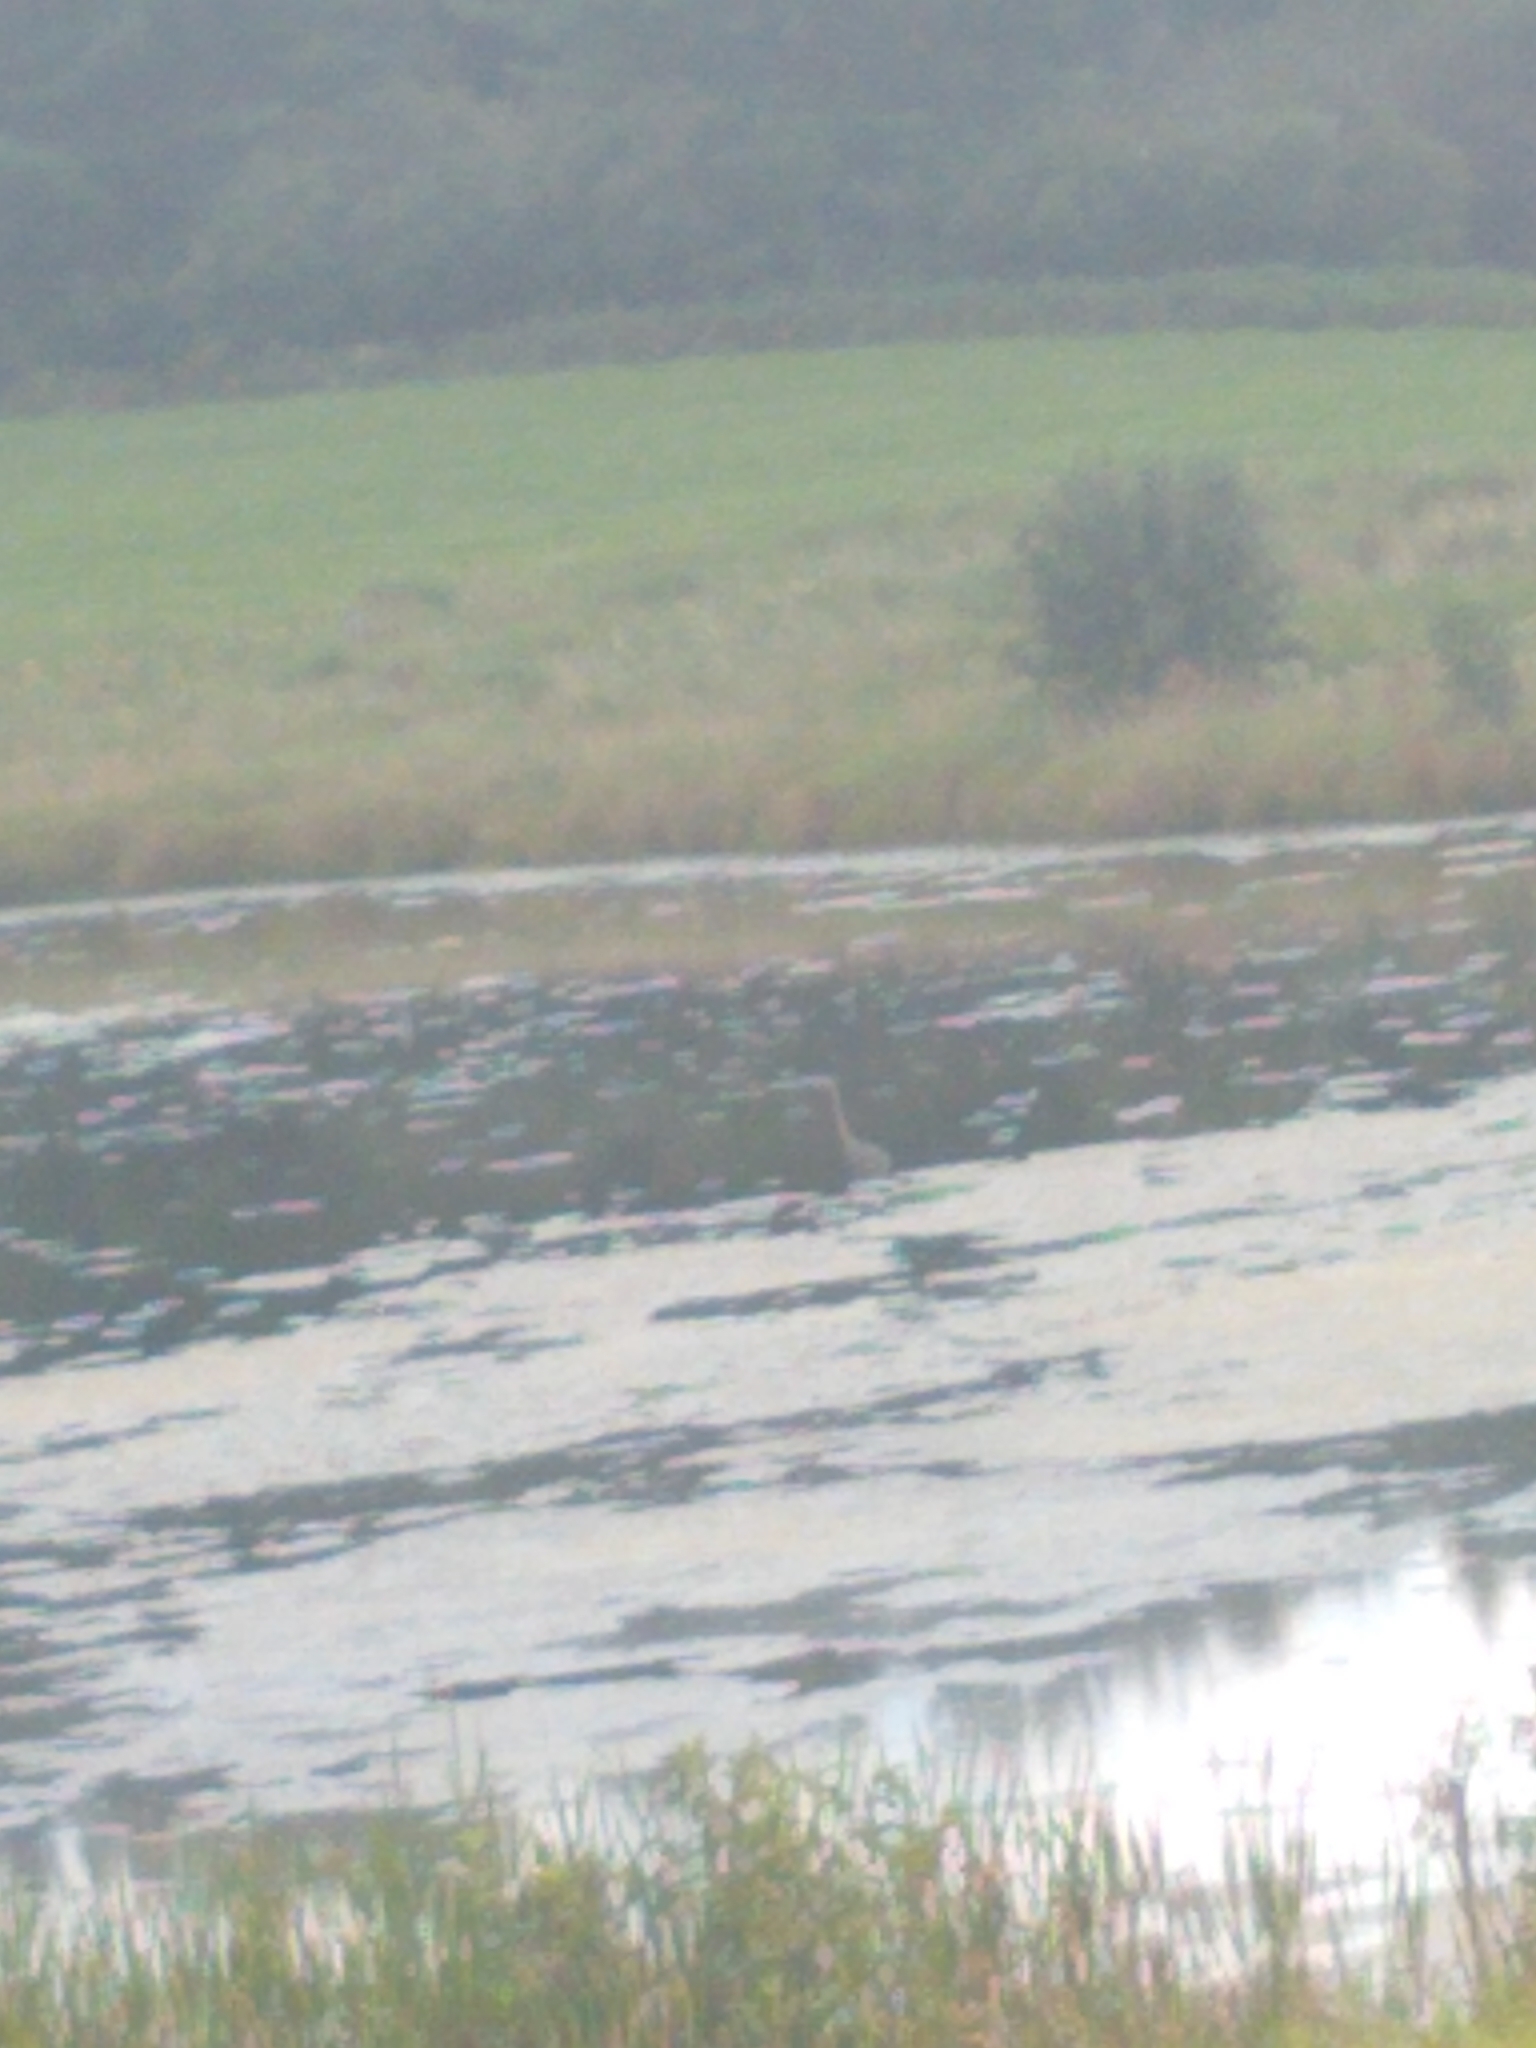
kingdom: Animalia
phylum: Chordata
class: Aves
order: Pelecaniformes
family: Ardeidae
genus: Ardea
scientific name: Ardea herodias
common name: Great blue heron
